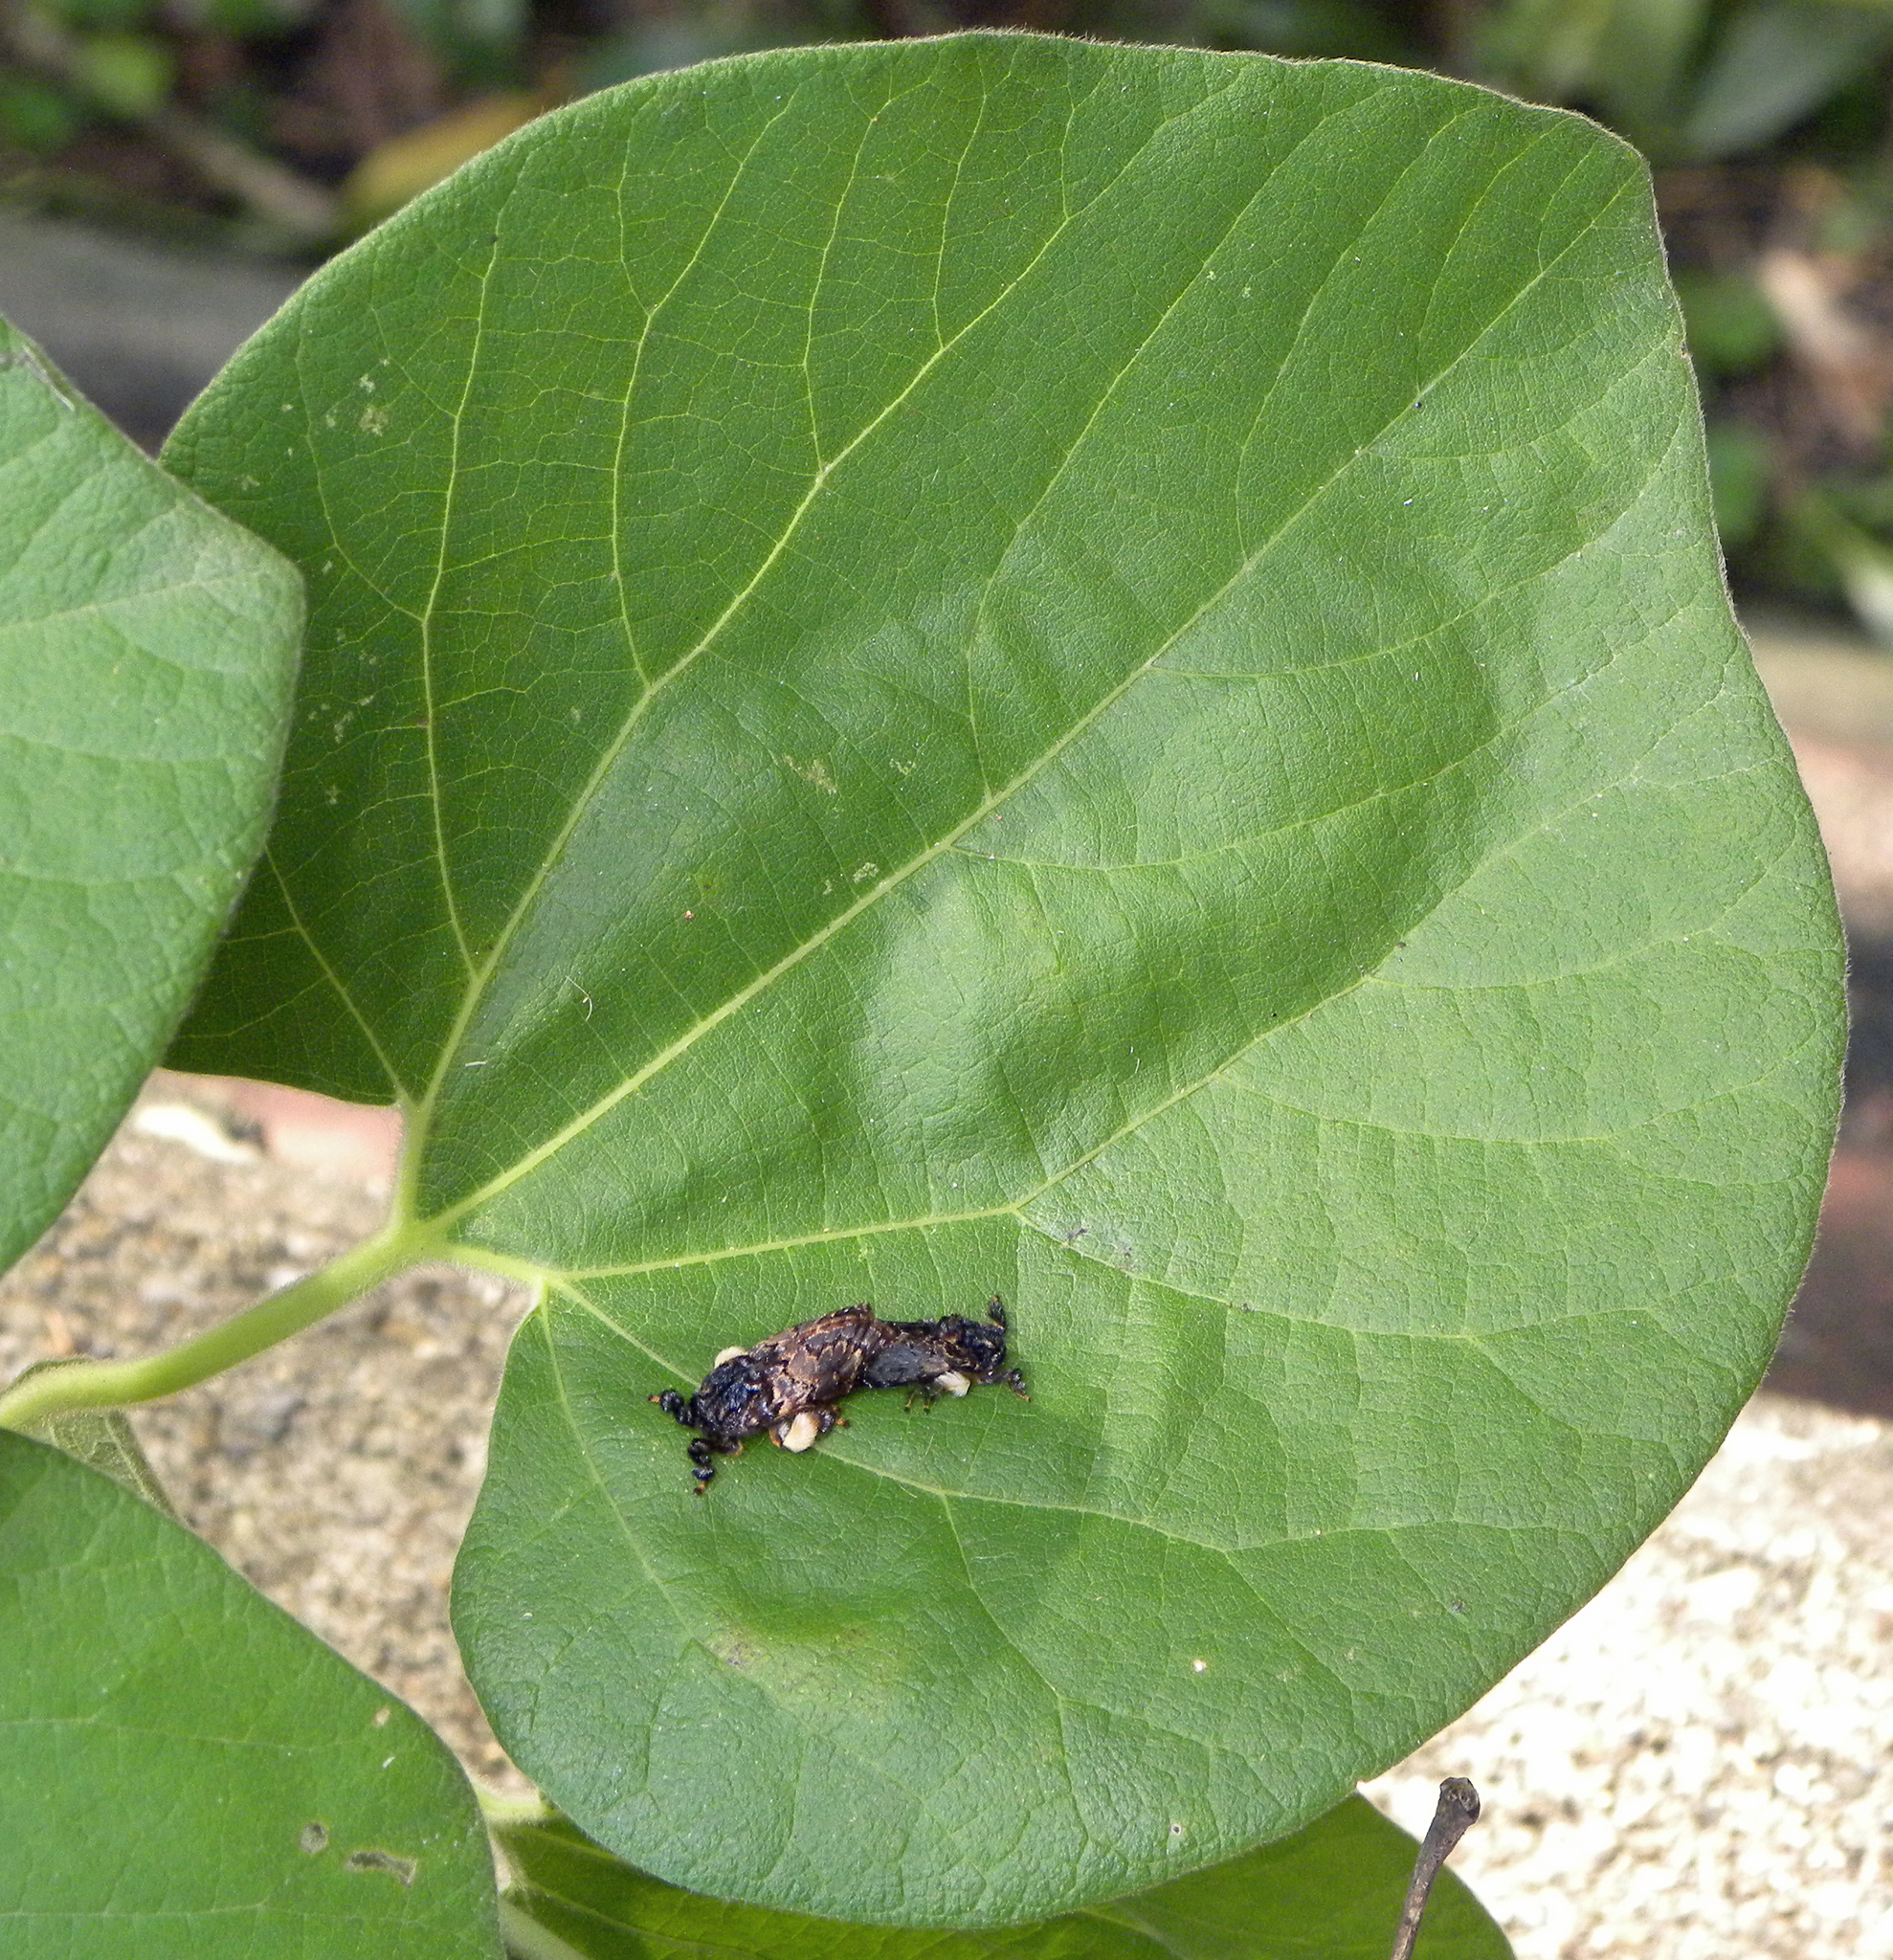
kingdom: Animalia
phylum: Arthropoda
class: Insecta
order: Lepidoptera
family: Limacodidae
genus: Phobetron
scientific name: Phobetron pithecium
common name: Hag moth
